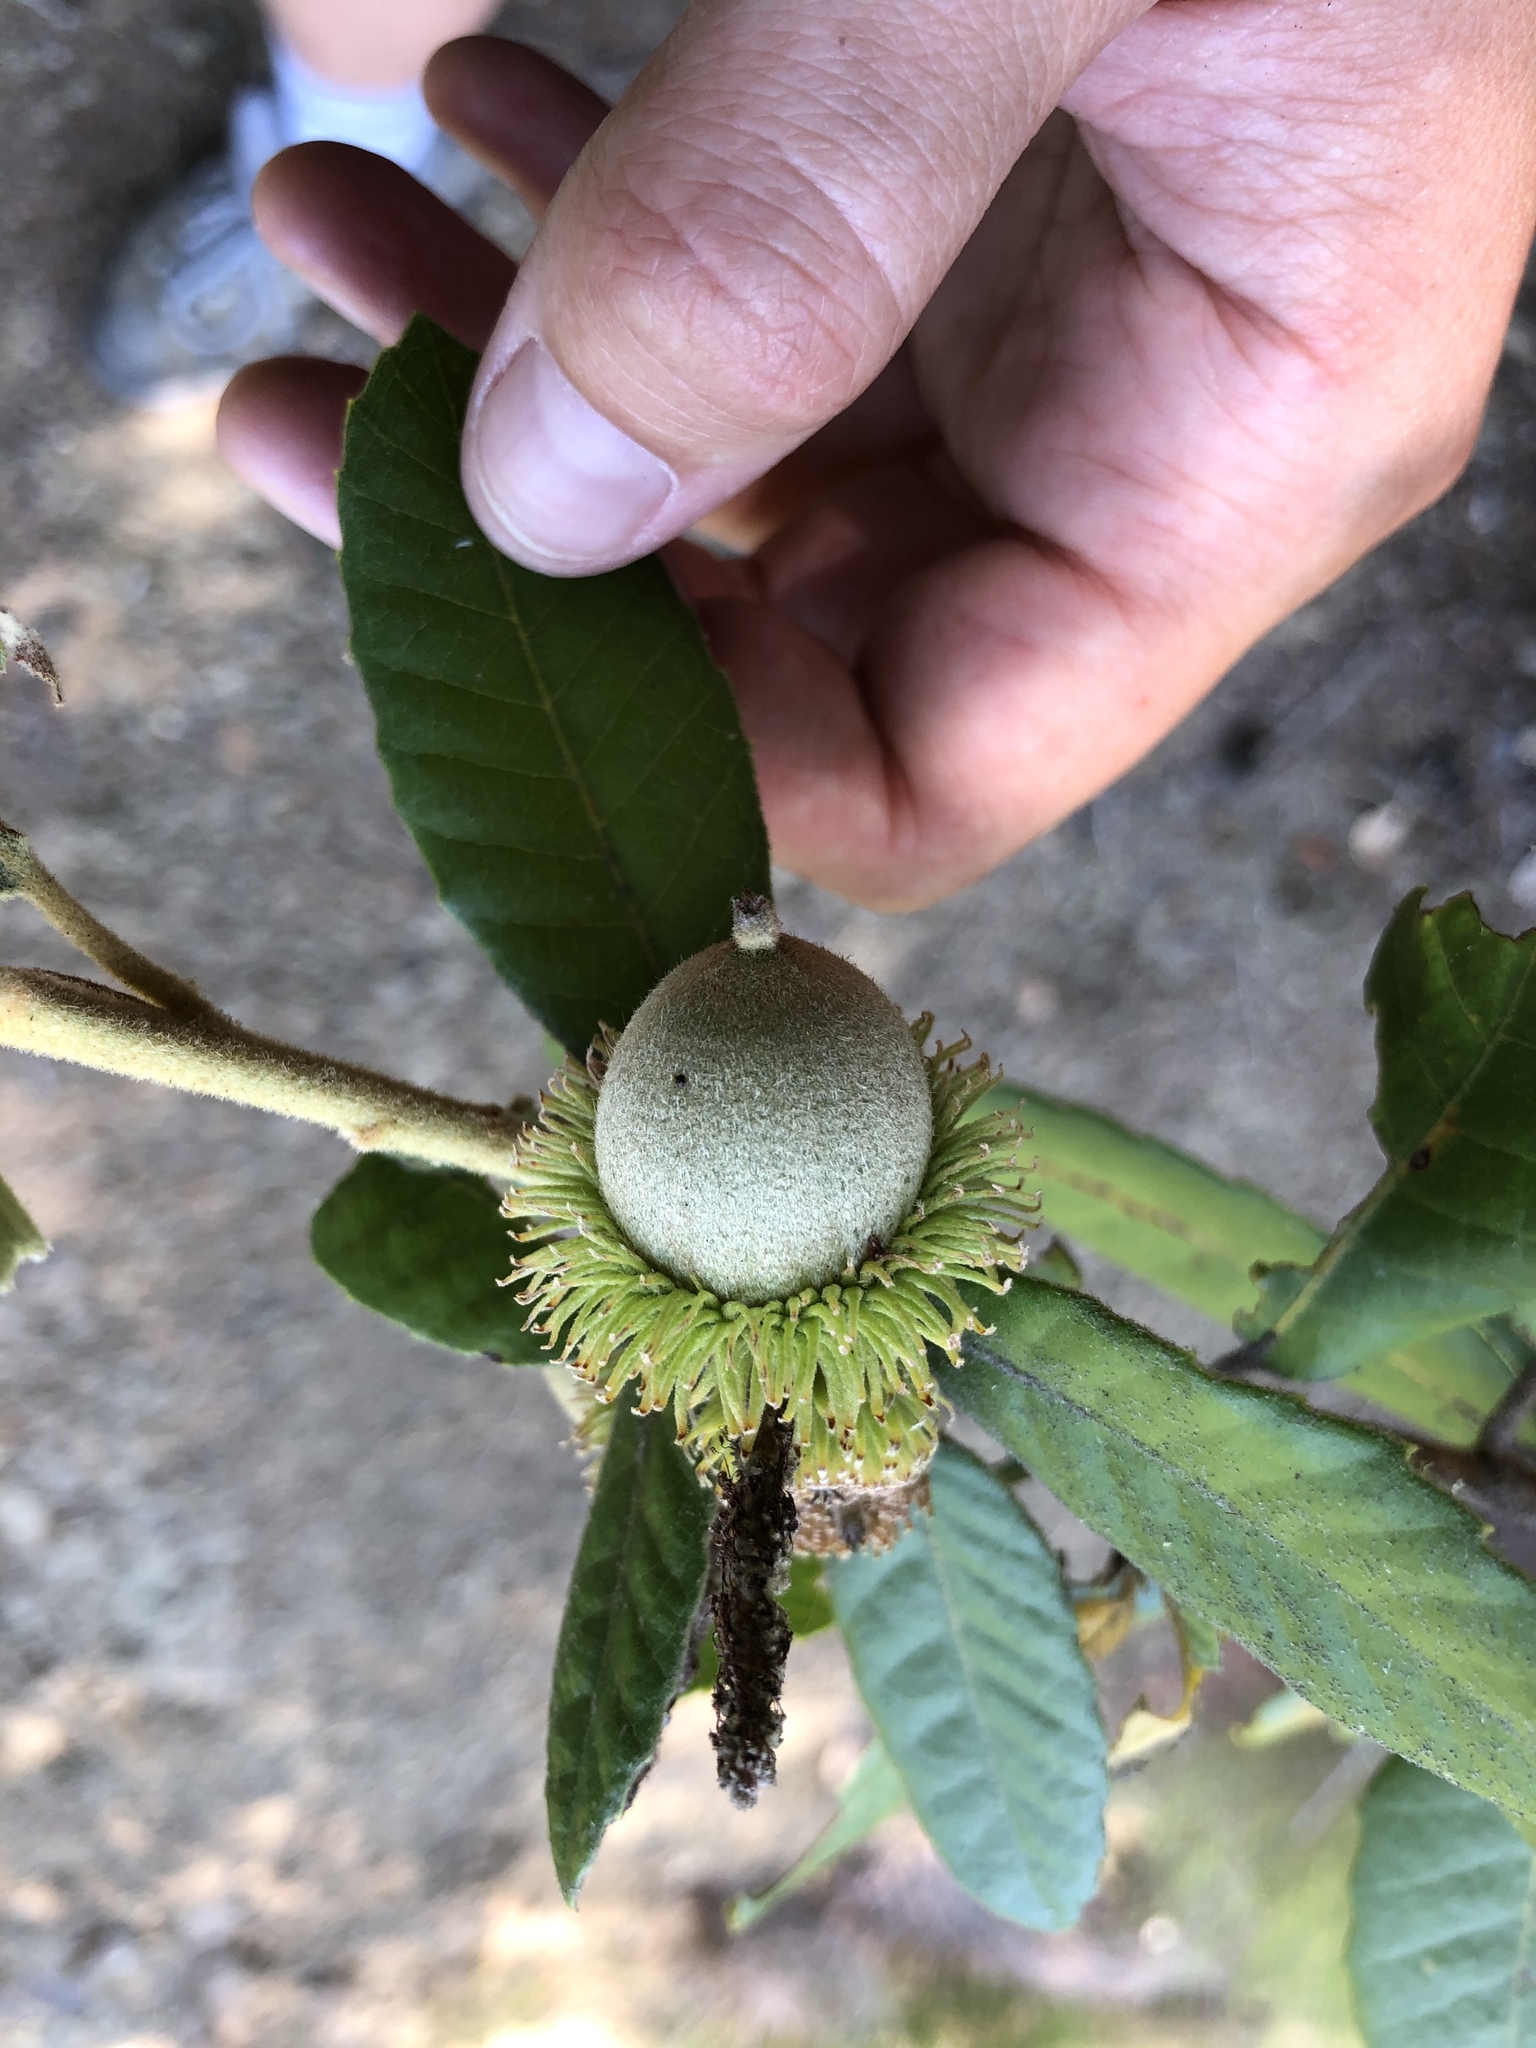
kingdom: Plantae
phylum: Tracheophyta
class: Magnoliopsida
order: Fagales
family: Fagaceae
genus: Notholithocarpus
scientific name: Notholithocarpus densiflorus
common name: Tan bark oak
